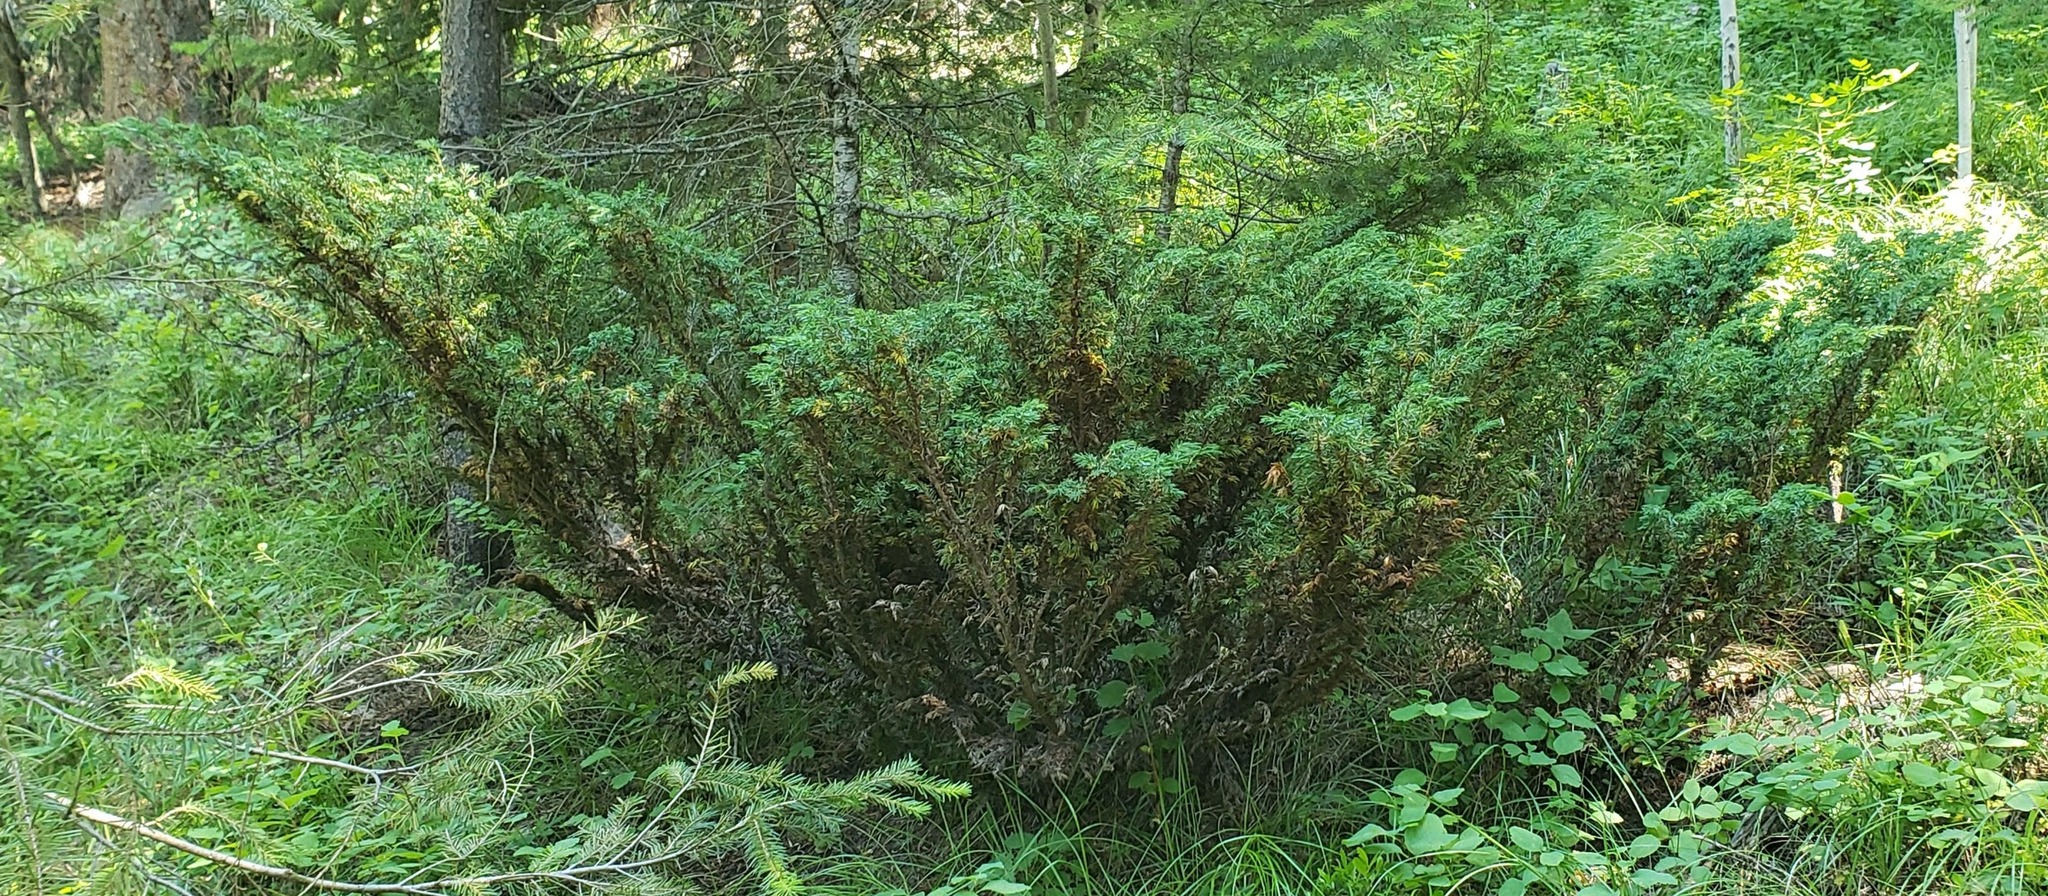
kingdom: Plantae
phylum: Tracheophyta
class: Pinopsida
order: Pinales
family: Cupressaceae
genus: Juniperus
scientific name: Juniperus communis
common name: Common juniper
